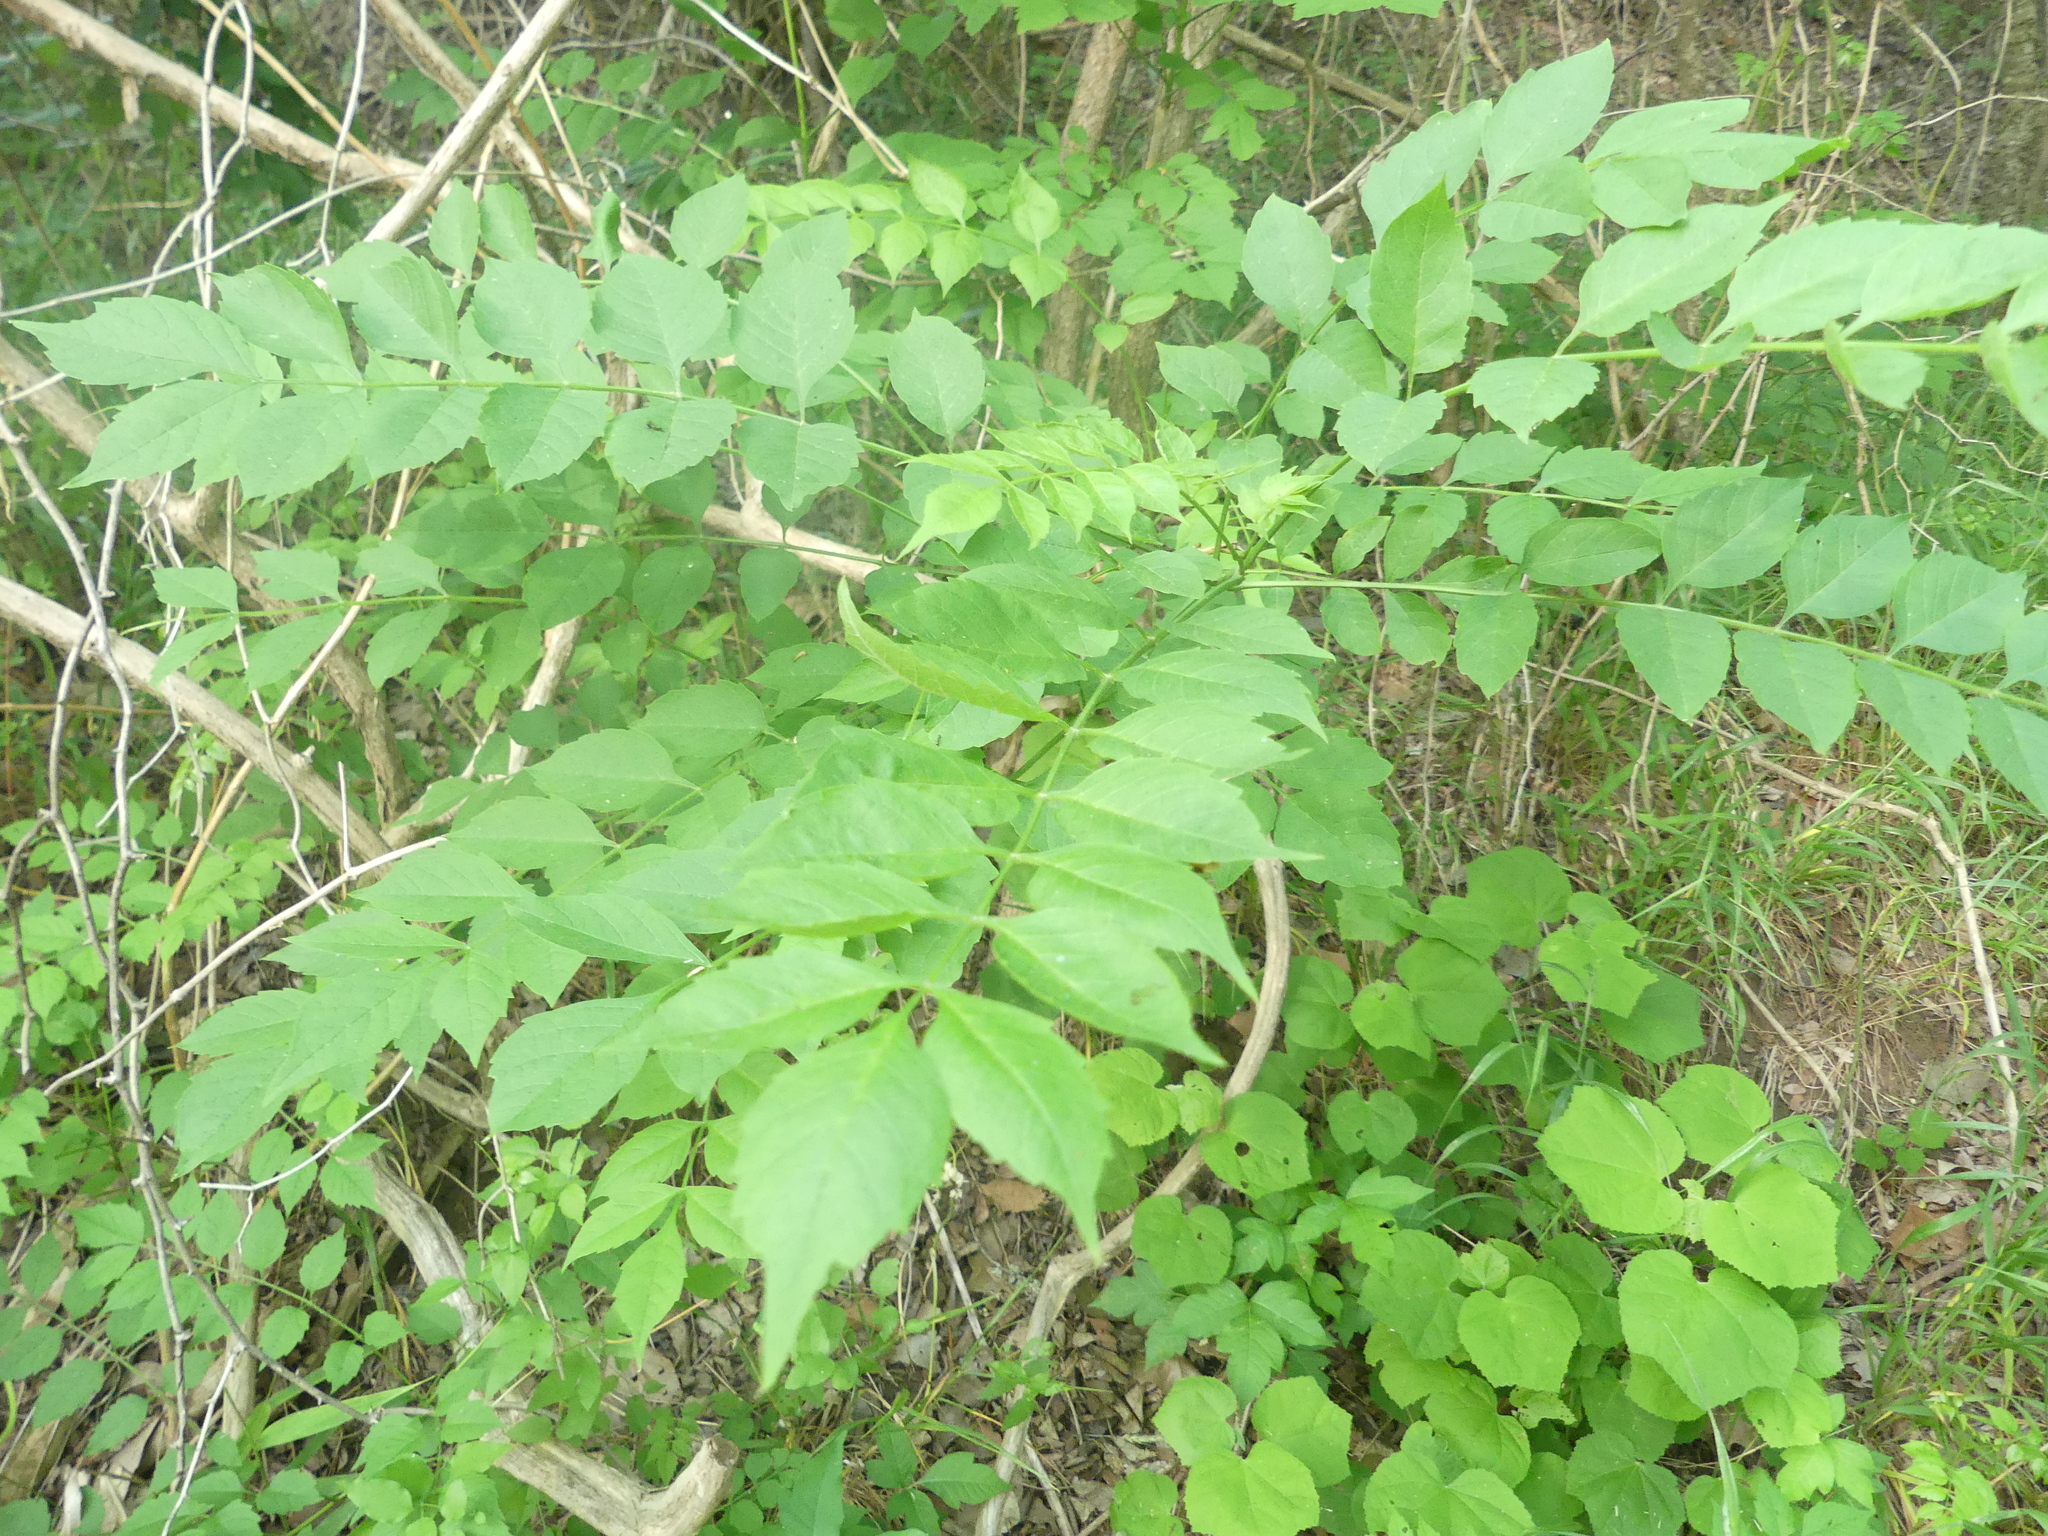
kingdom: Plantae
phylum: Tracheophyta
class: Magnoliopsida
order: Lamiales
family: Bignoniaceae
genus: Campsis
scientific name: Campsis radicans
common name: Trumpet-creeper
